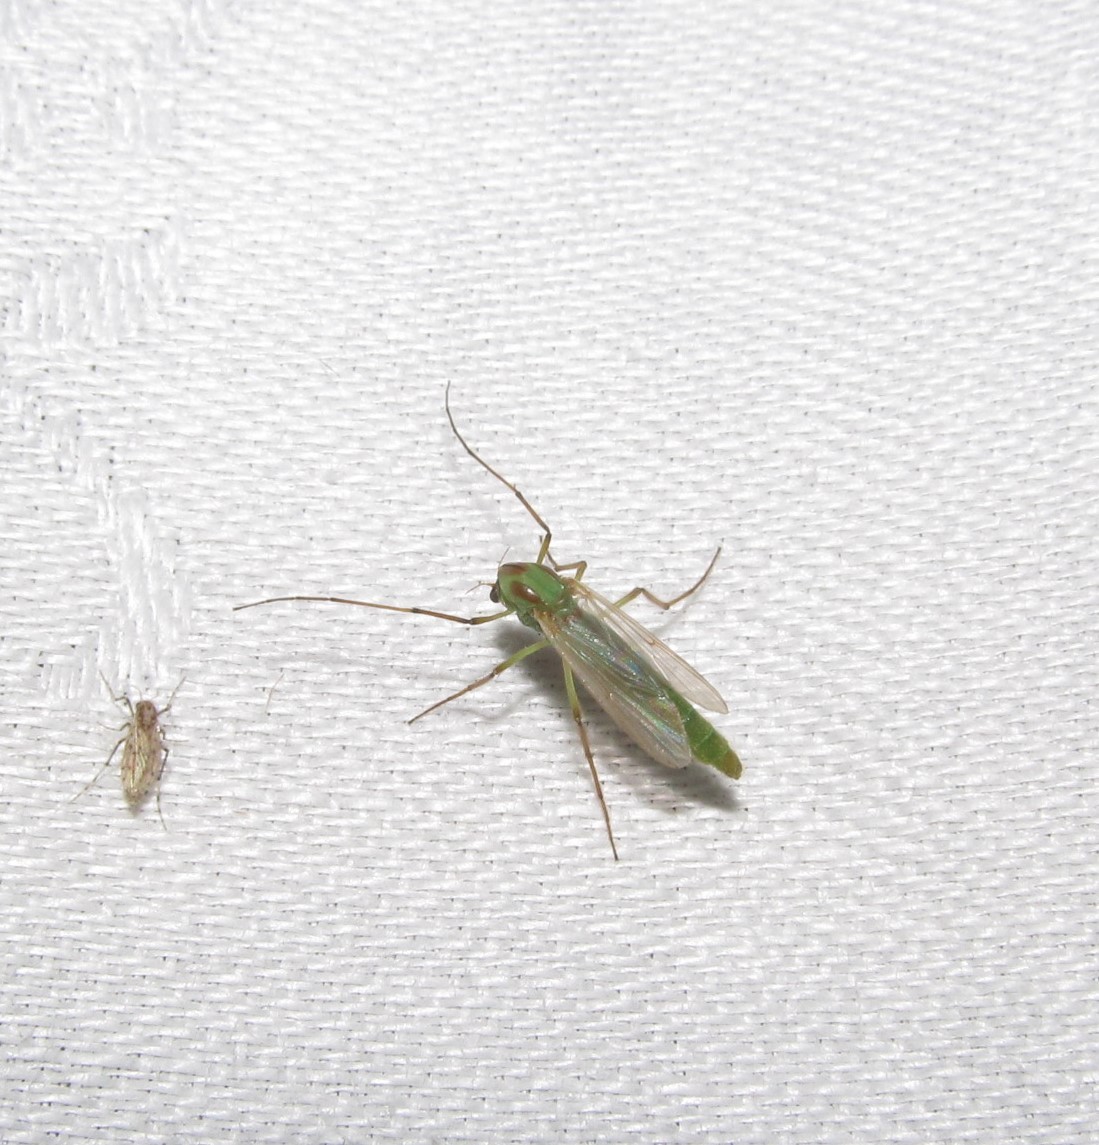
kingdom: Animalia
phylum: Arthropoda
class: Insecta
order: Diptera
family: Chironomidae
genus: Axarus
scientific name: Axarus
